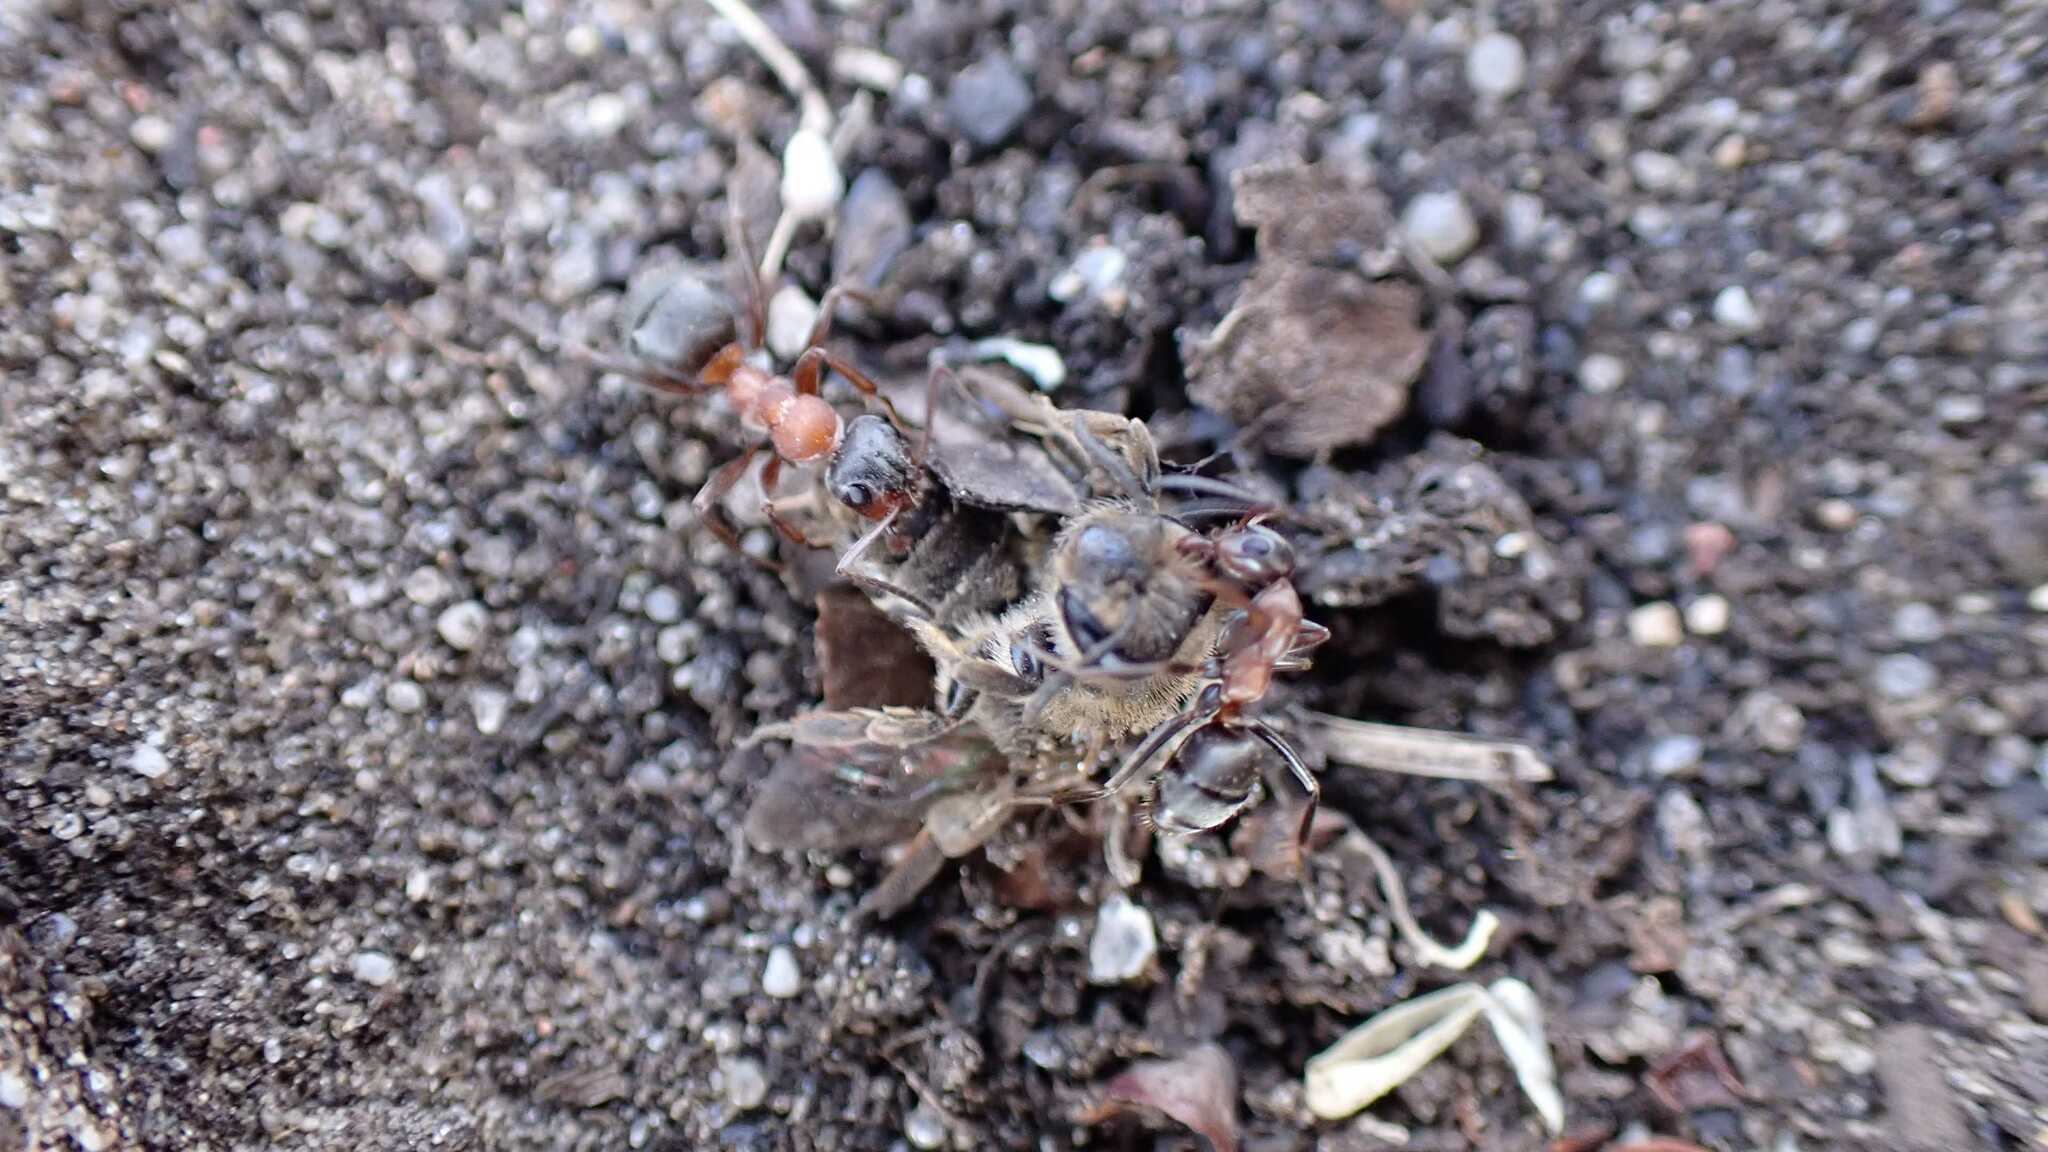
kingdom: Animalia
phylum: Arthropoda
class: Insecta
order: Hymenoptera
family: Formicidae
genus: Formica
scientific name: Formica
